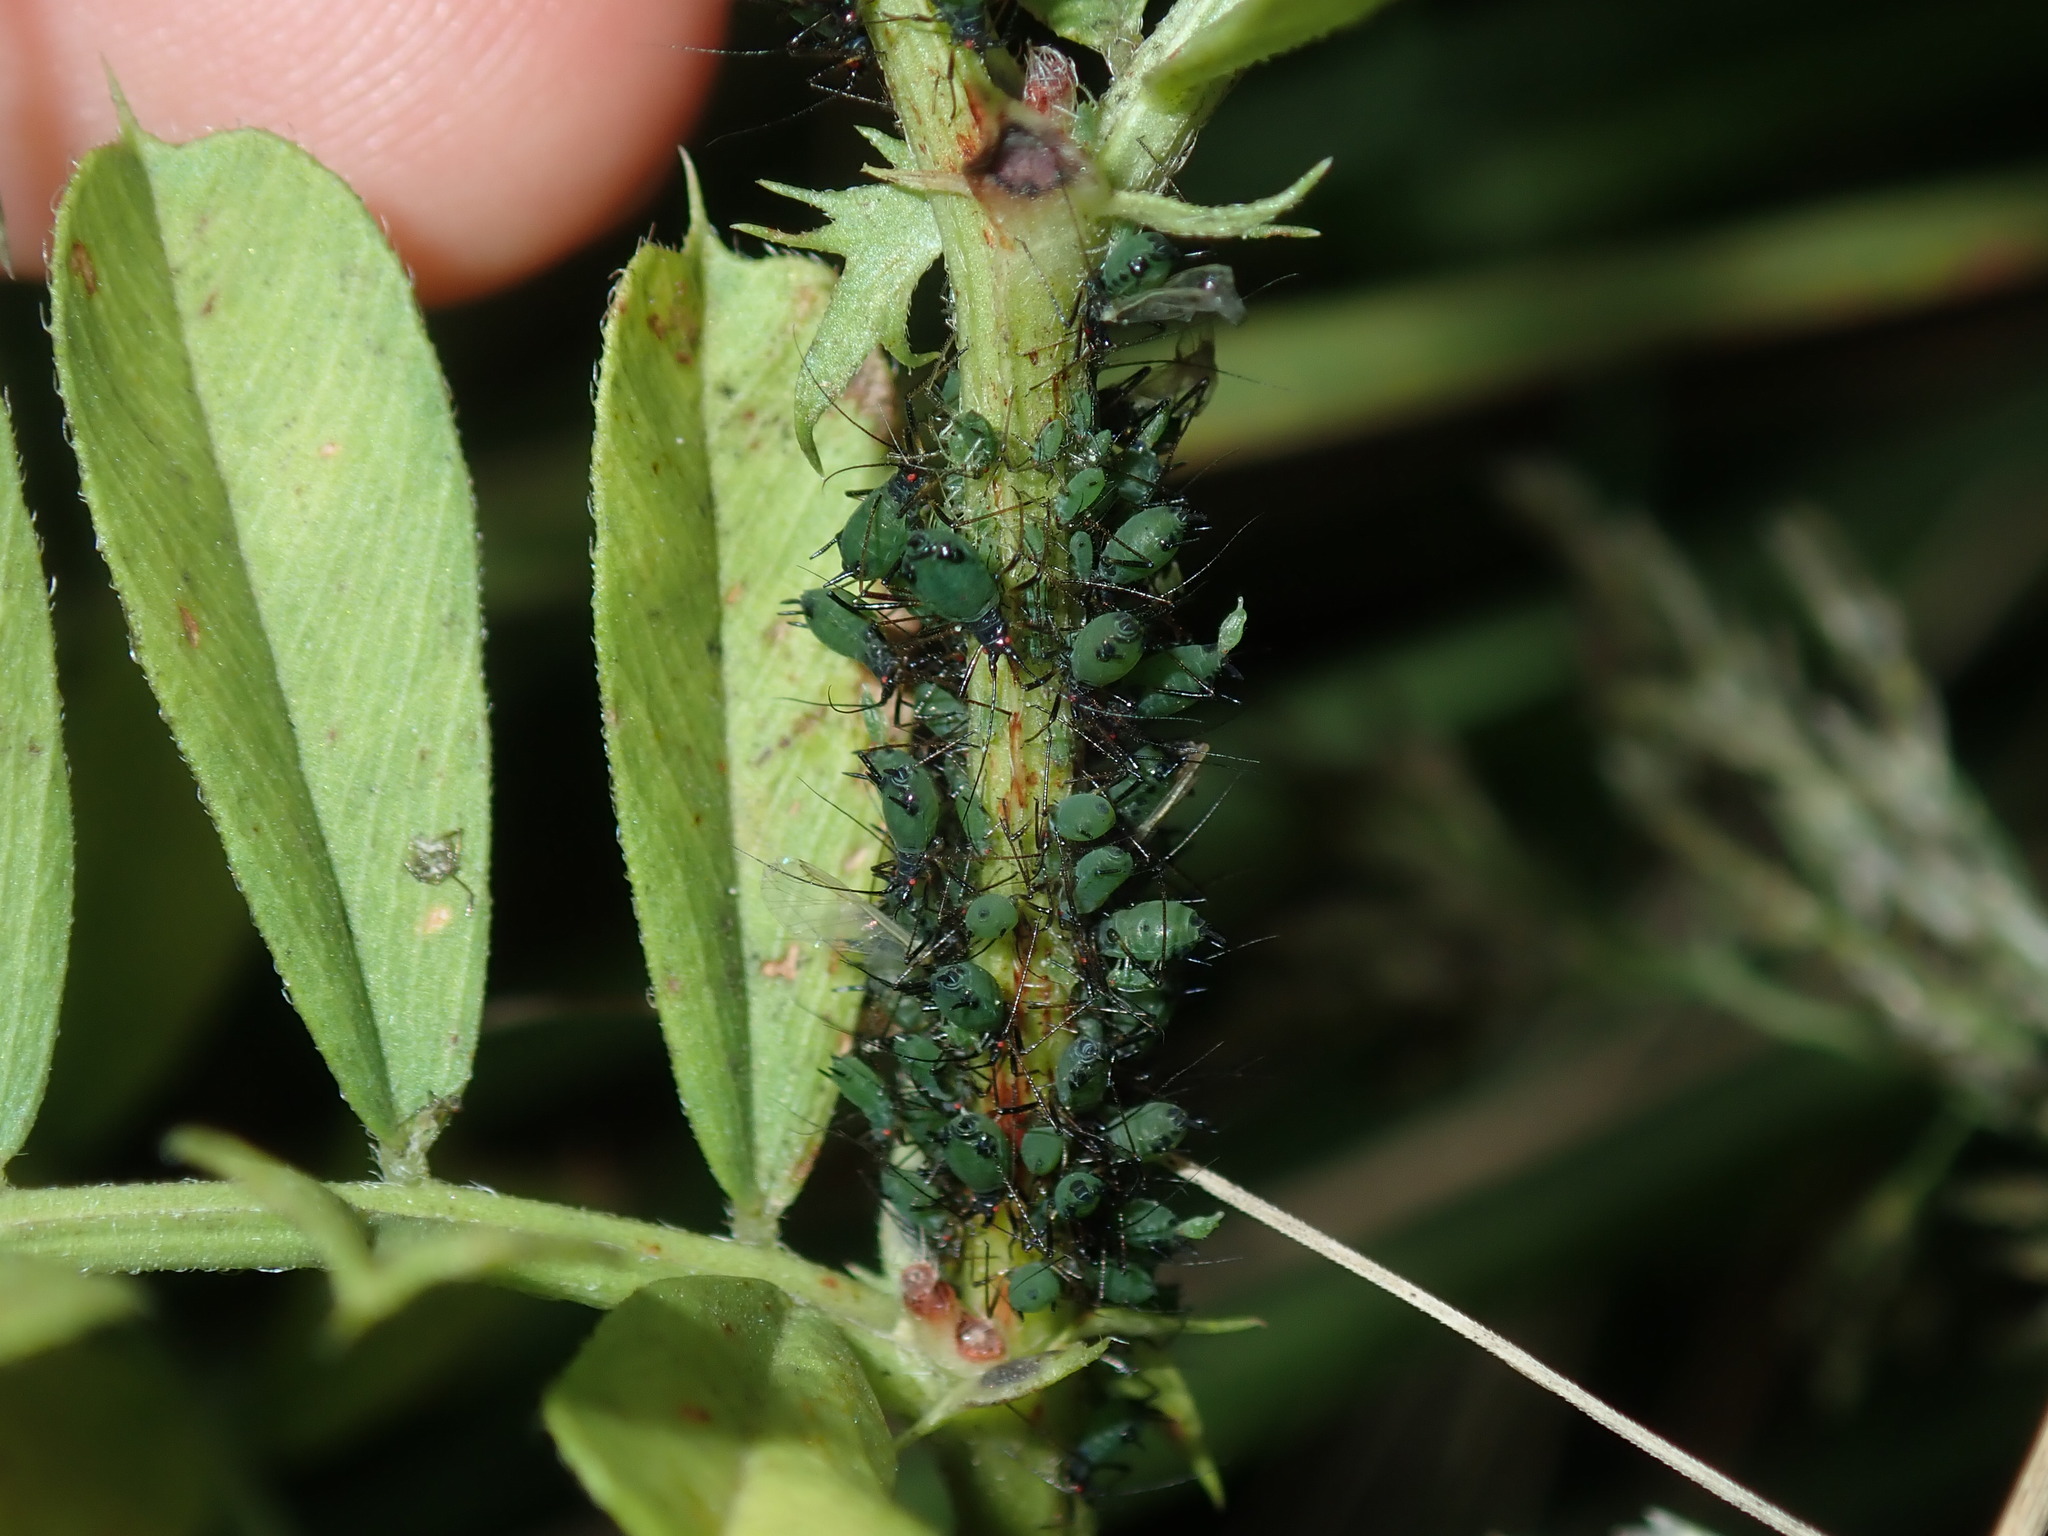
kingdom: Animalia
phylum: Arthropoda
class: Insecta
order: Hemiptera
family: Aphididae
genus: Megoura
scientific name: Megoura crassicauda
